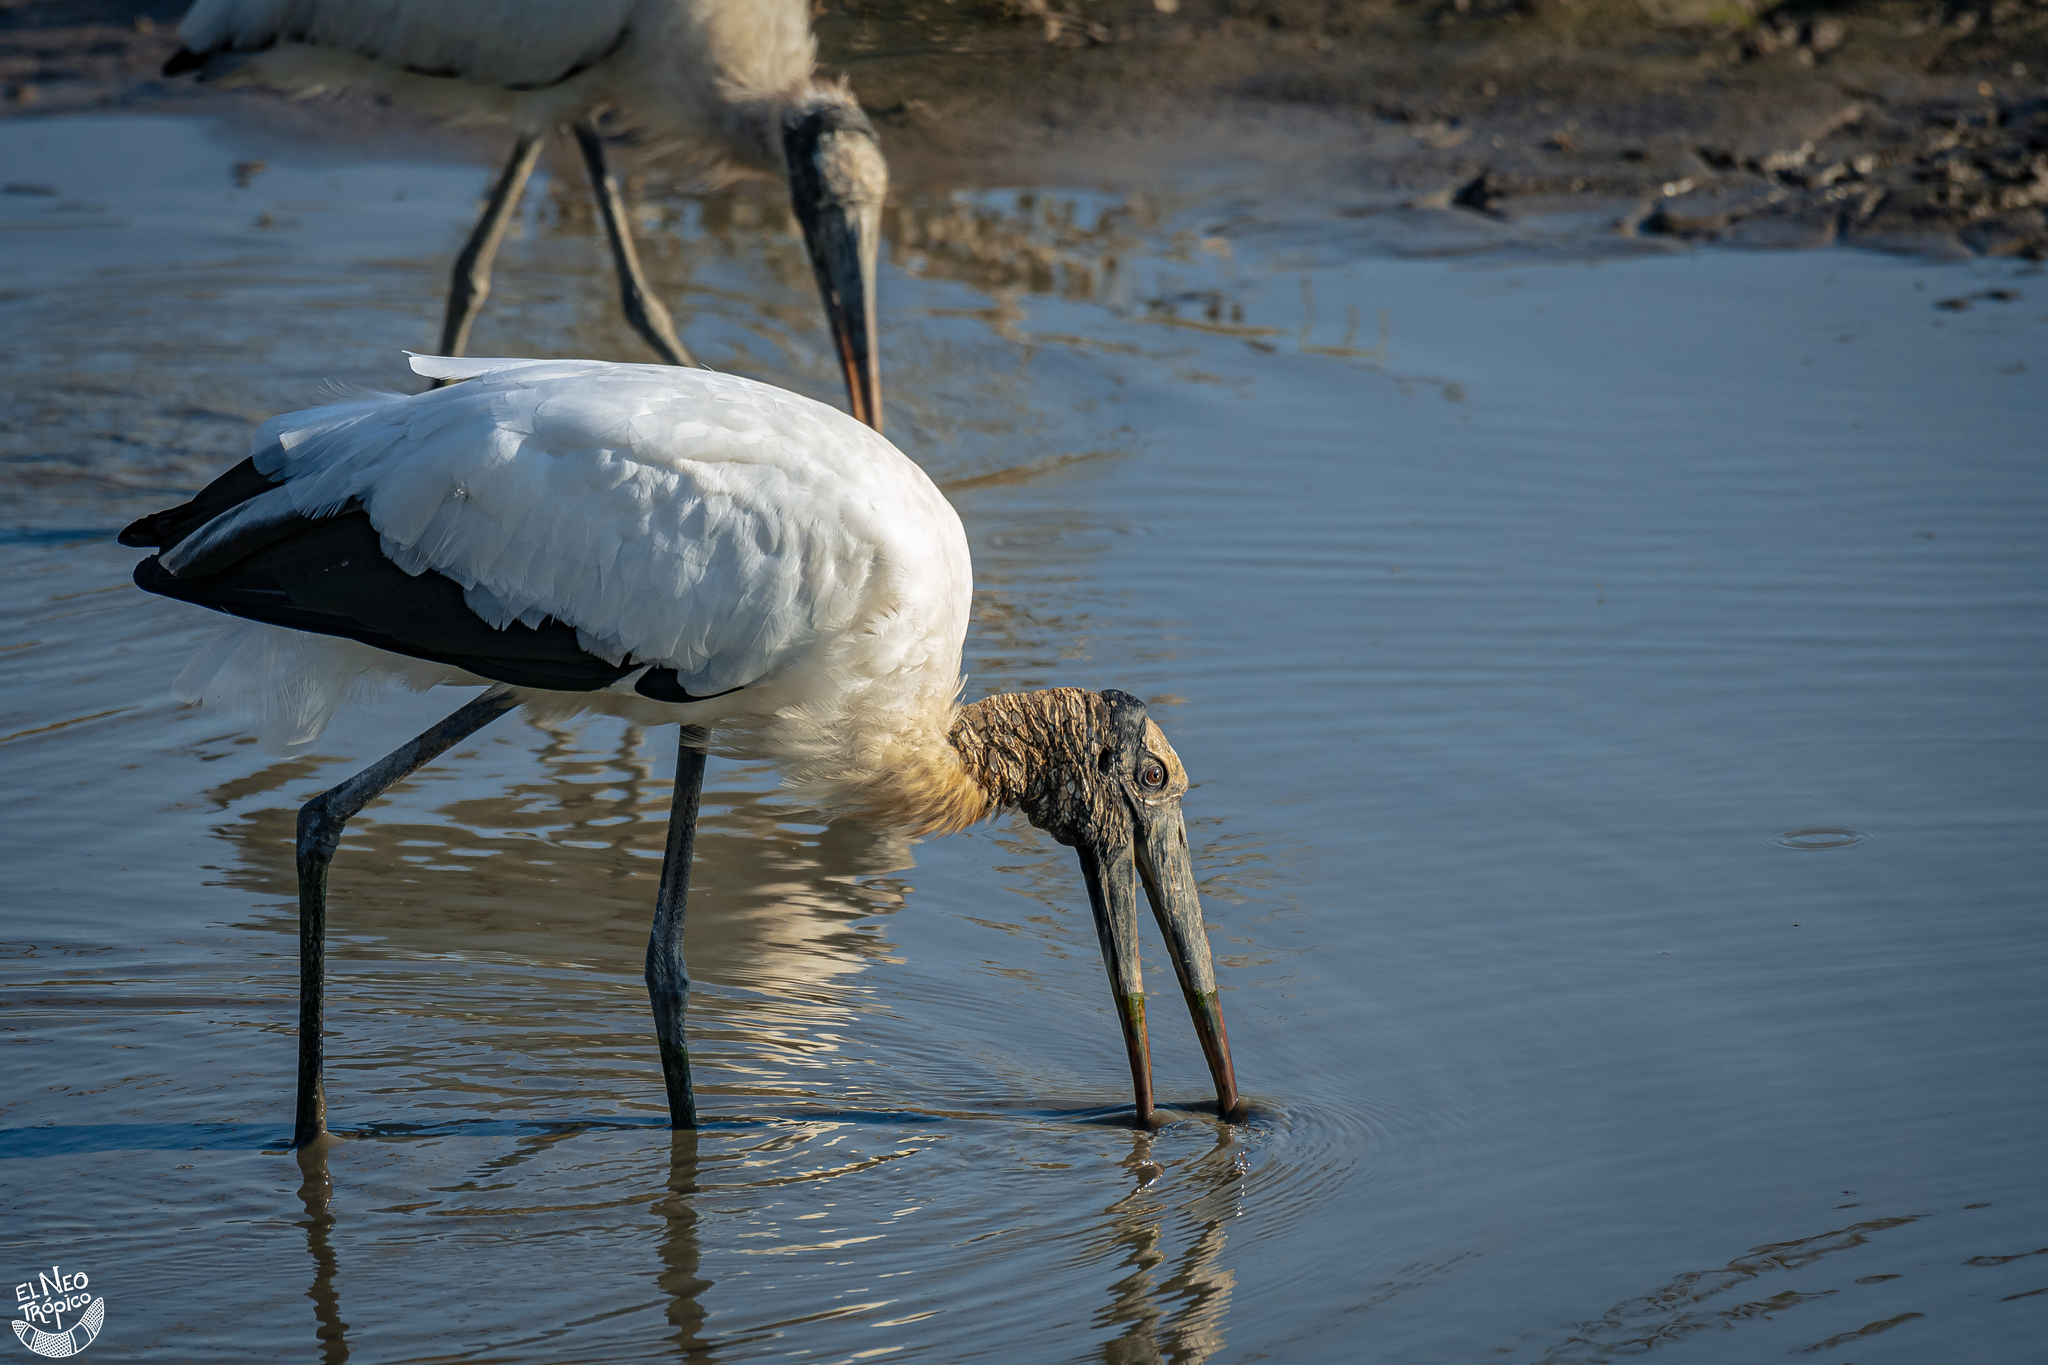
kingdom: Animalia
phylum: Chordata
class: Aves
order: Ciconiiformes
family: Ciconiidae
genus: Mycteria
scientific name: Mycteria americana
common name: Wood stork
